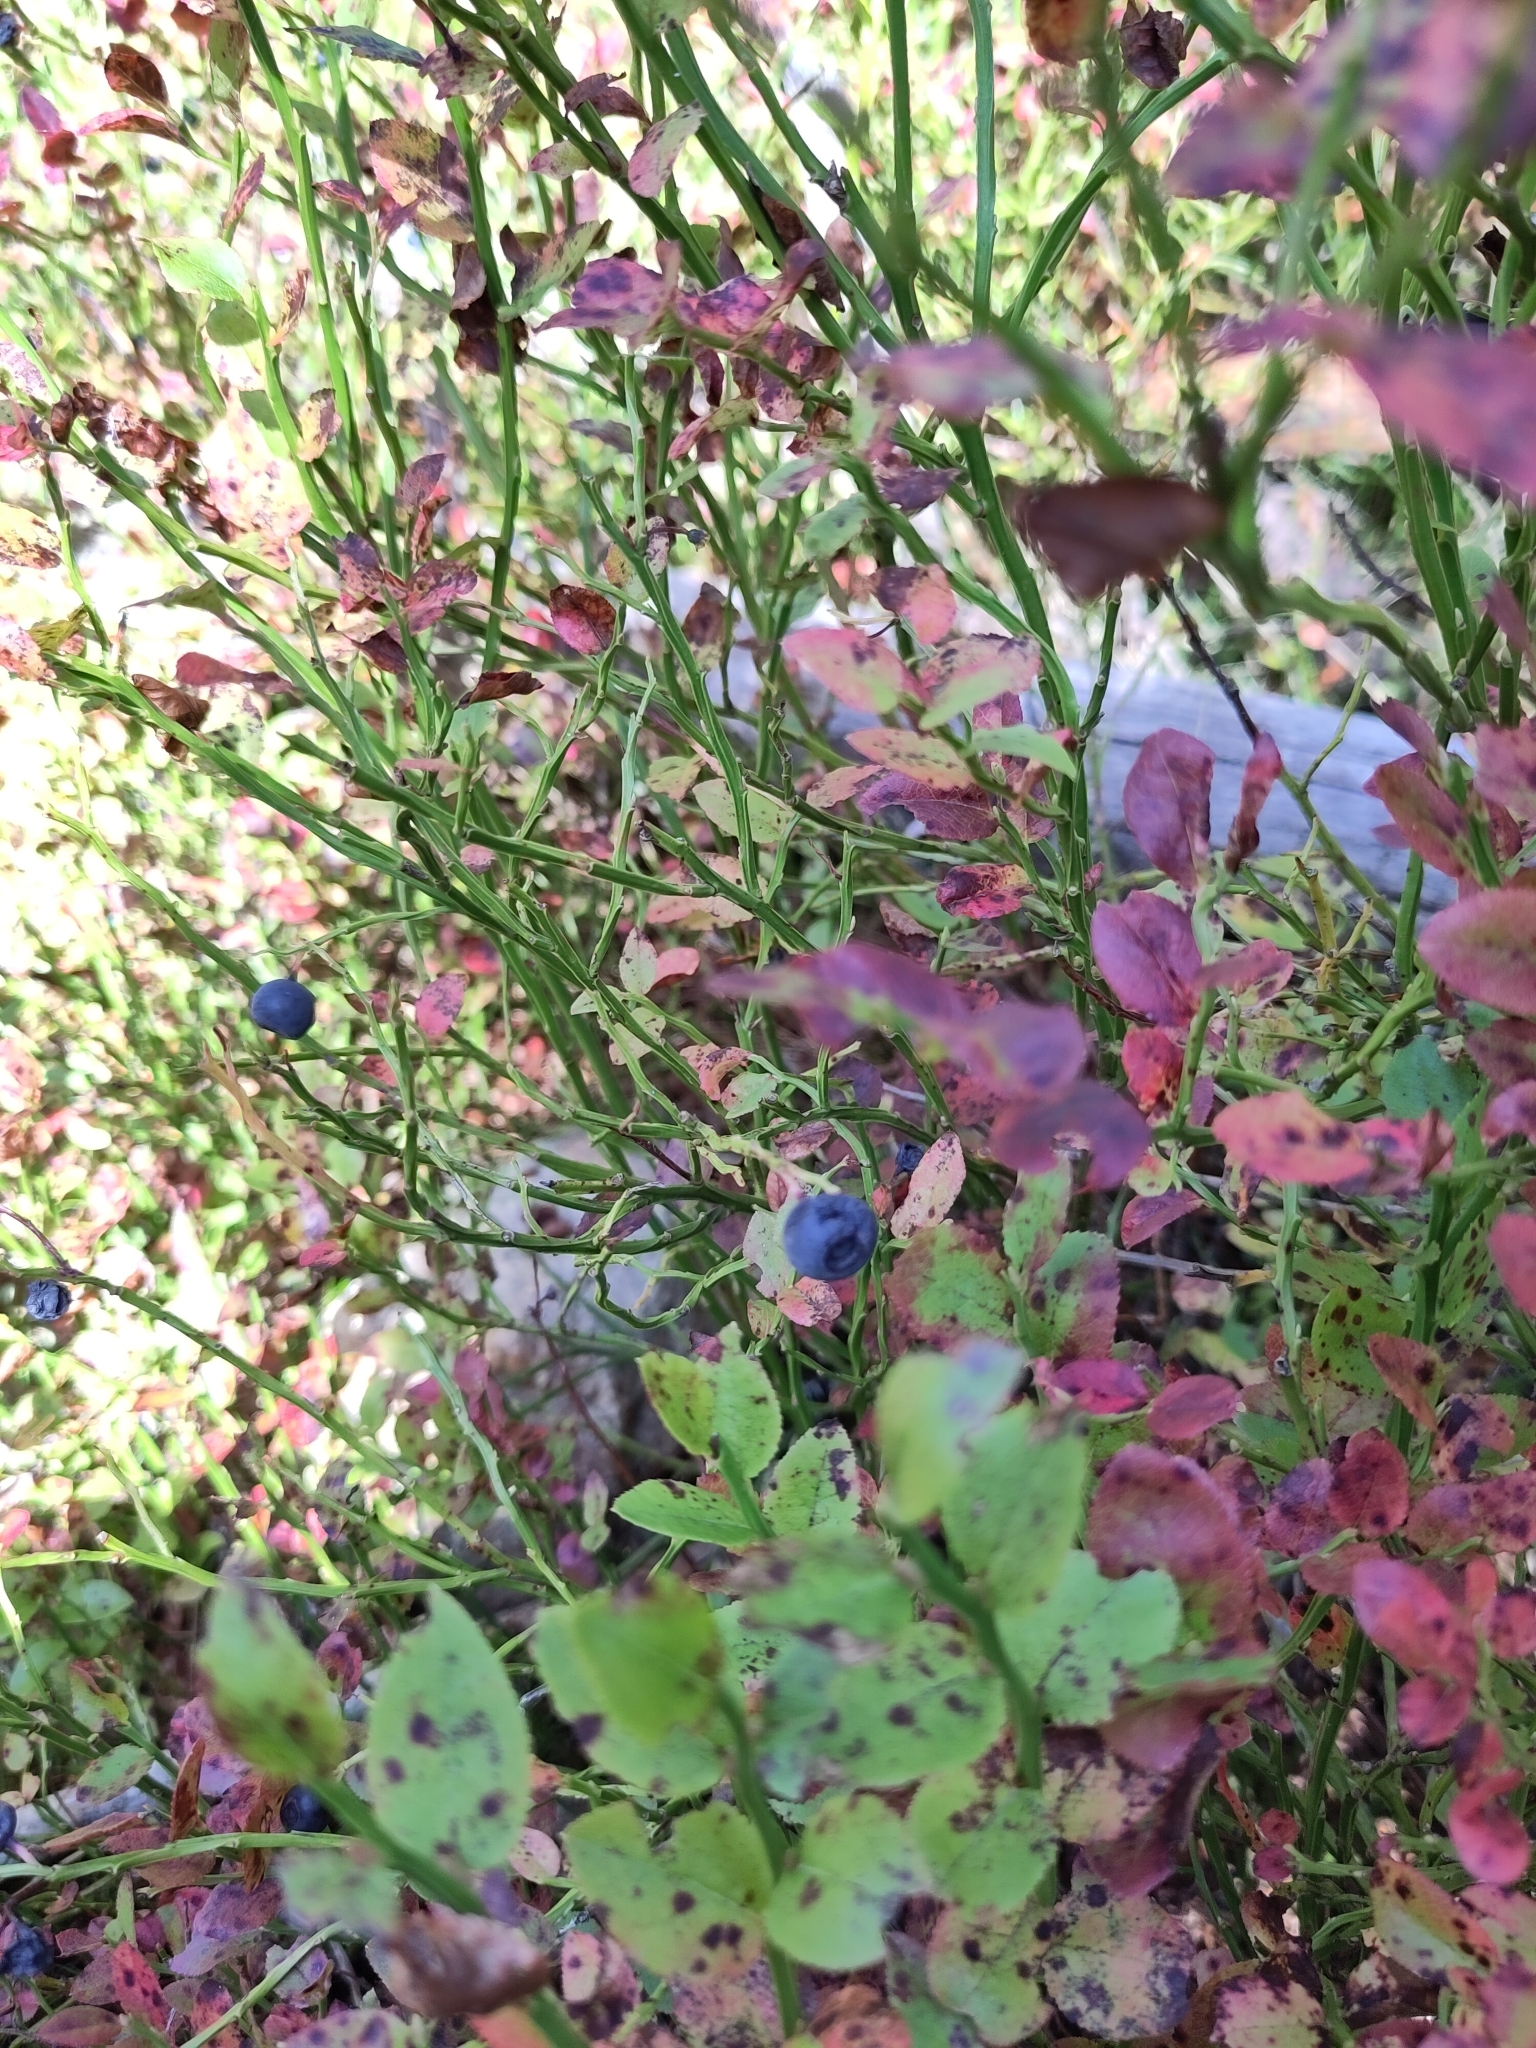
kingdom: Plantae
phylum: Tracheophyta
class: Magnoliopsida
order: Ericales
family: Ericaceae
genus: Vaccinium
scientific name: Vaccinium myrtillus
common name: Bilberry
